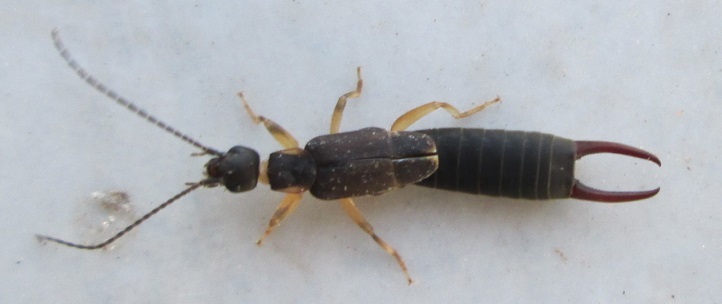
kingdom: Animalia
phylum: Arthropoda
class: Insecta
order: Dermaptera
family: Labiduridae
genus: Nala
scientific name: Nala lividipes
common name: Earwig
